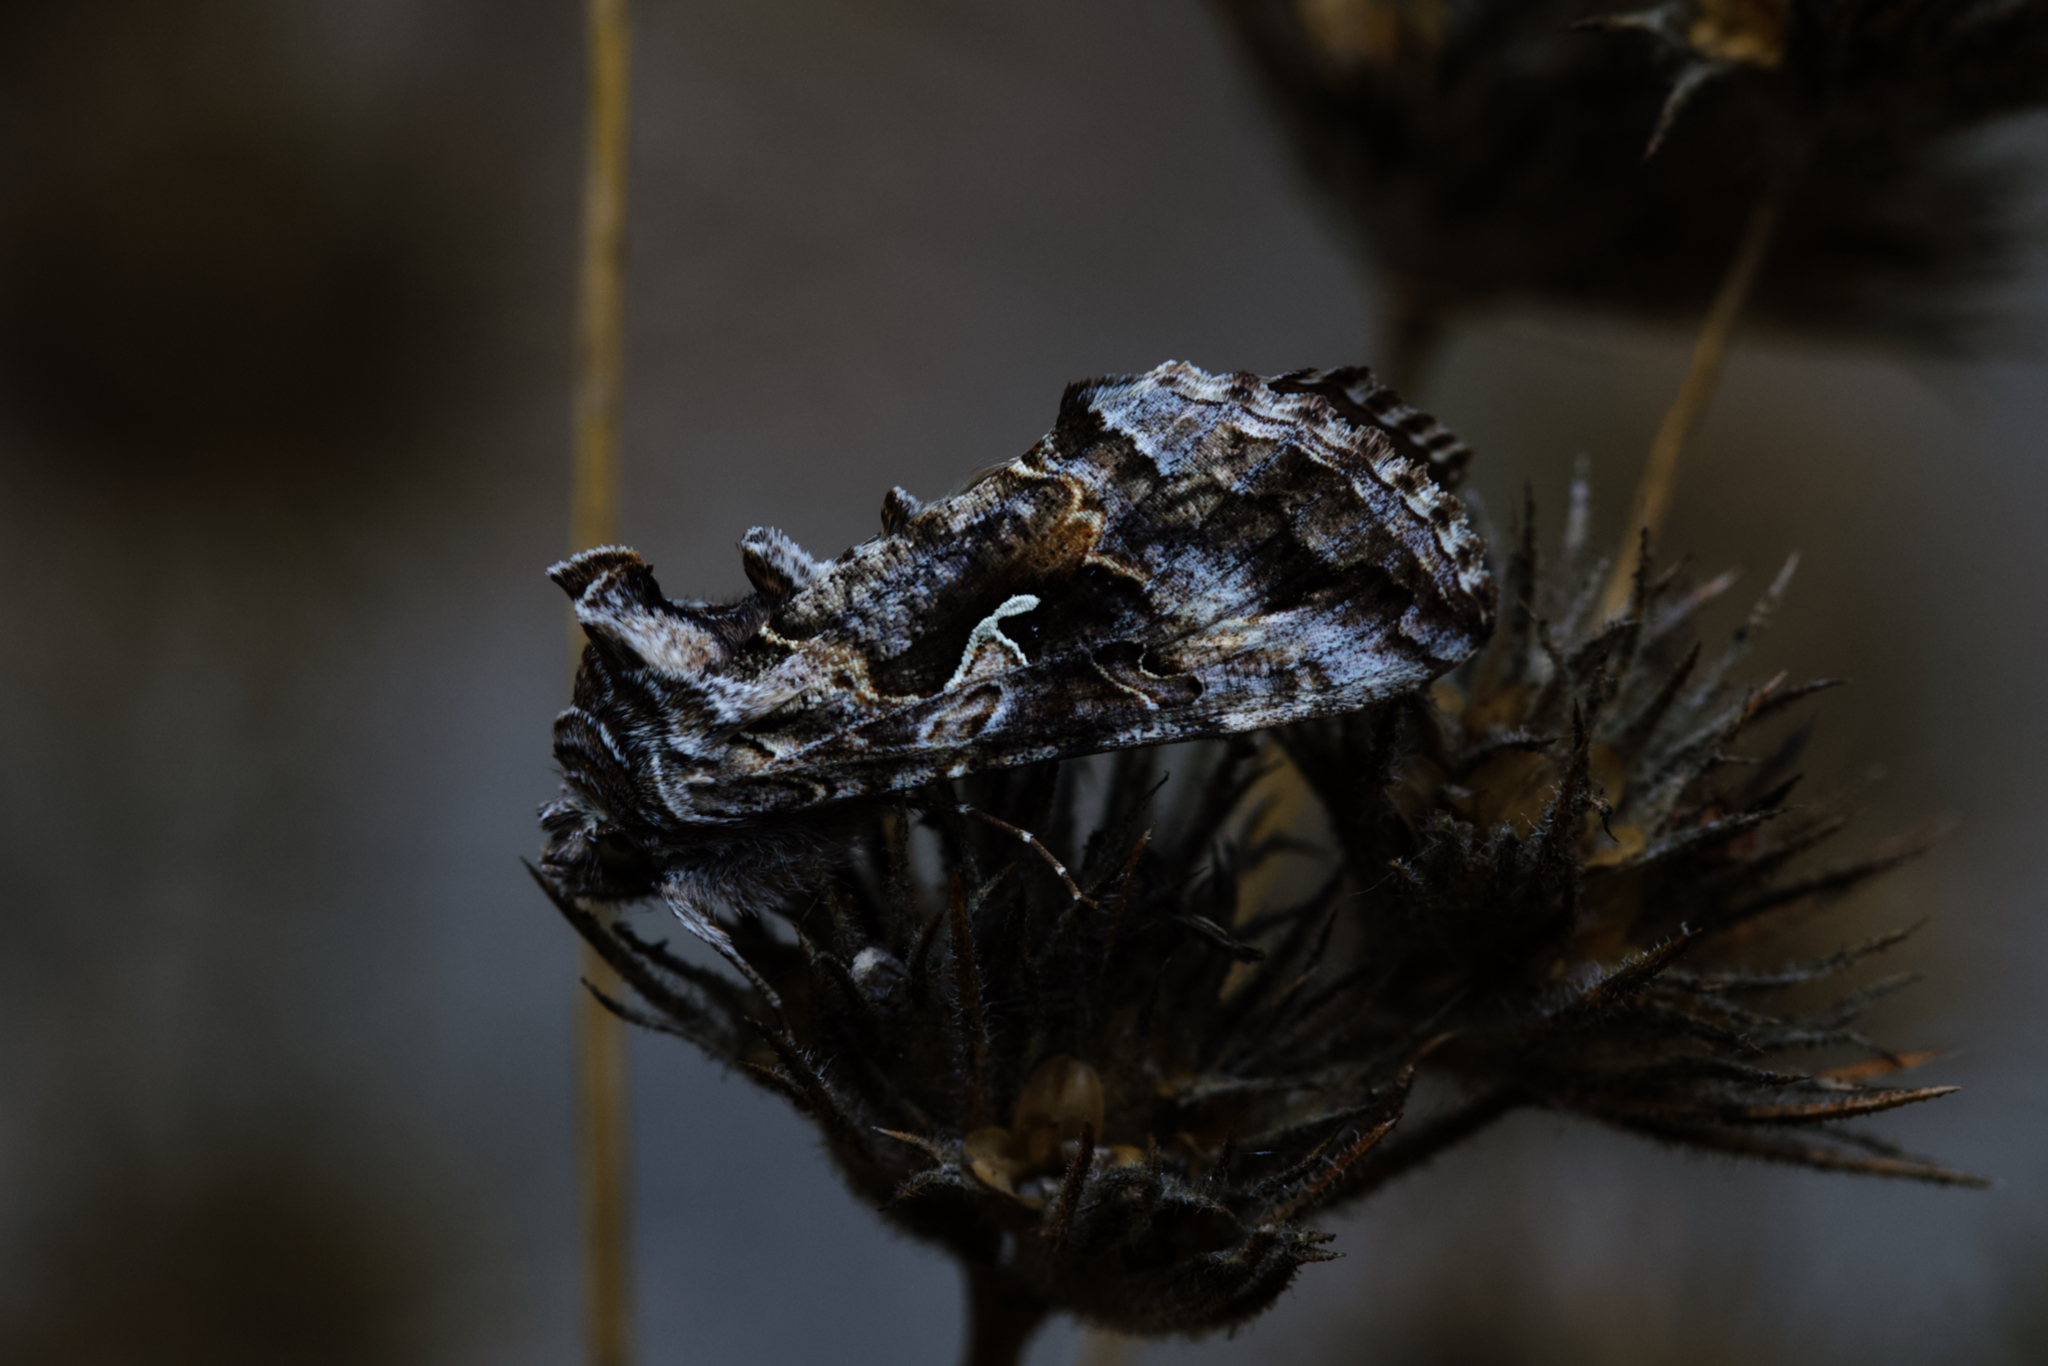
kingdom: Animalia
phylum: Arthropoda
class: Insecta
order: Lepidoptera
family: Noctuidae
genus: Autographa
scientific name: Autographa californica
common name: Alfalfa looper
